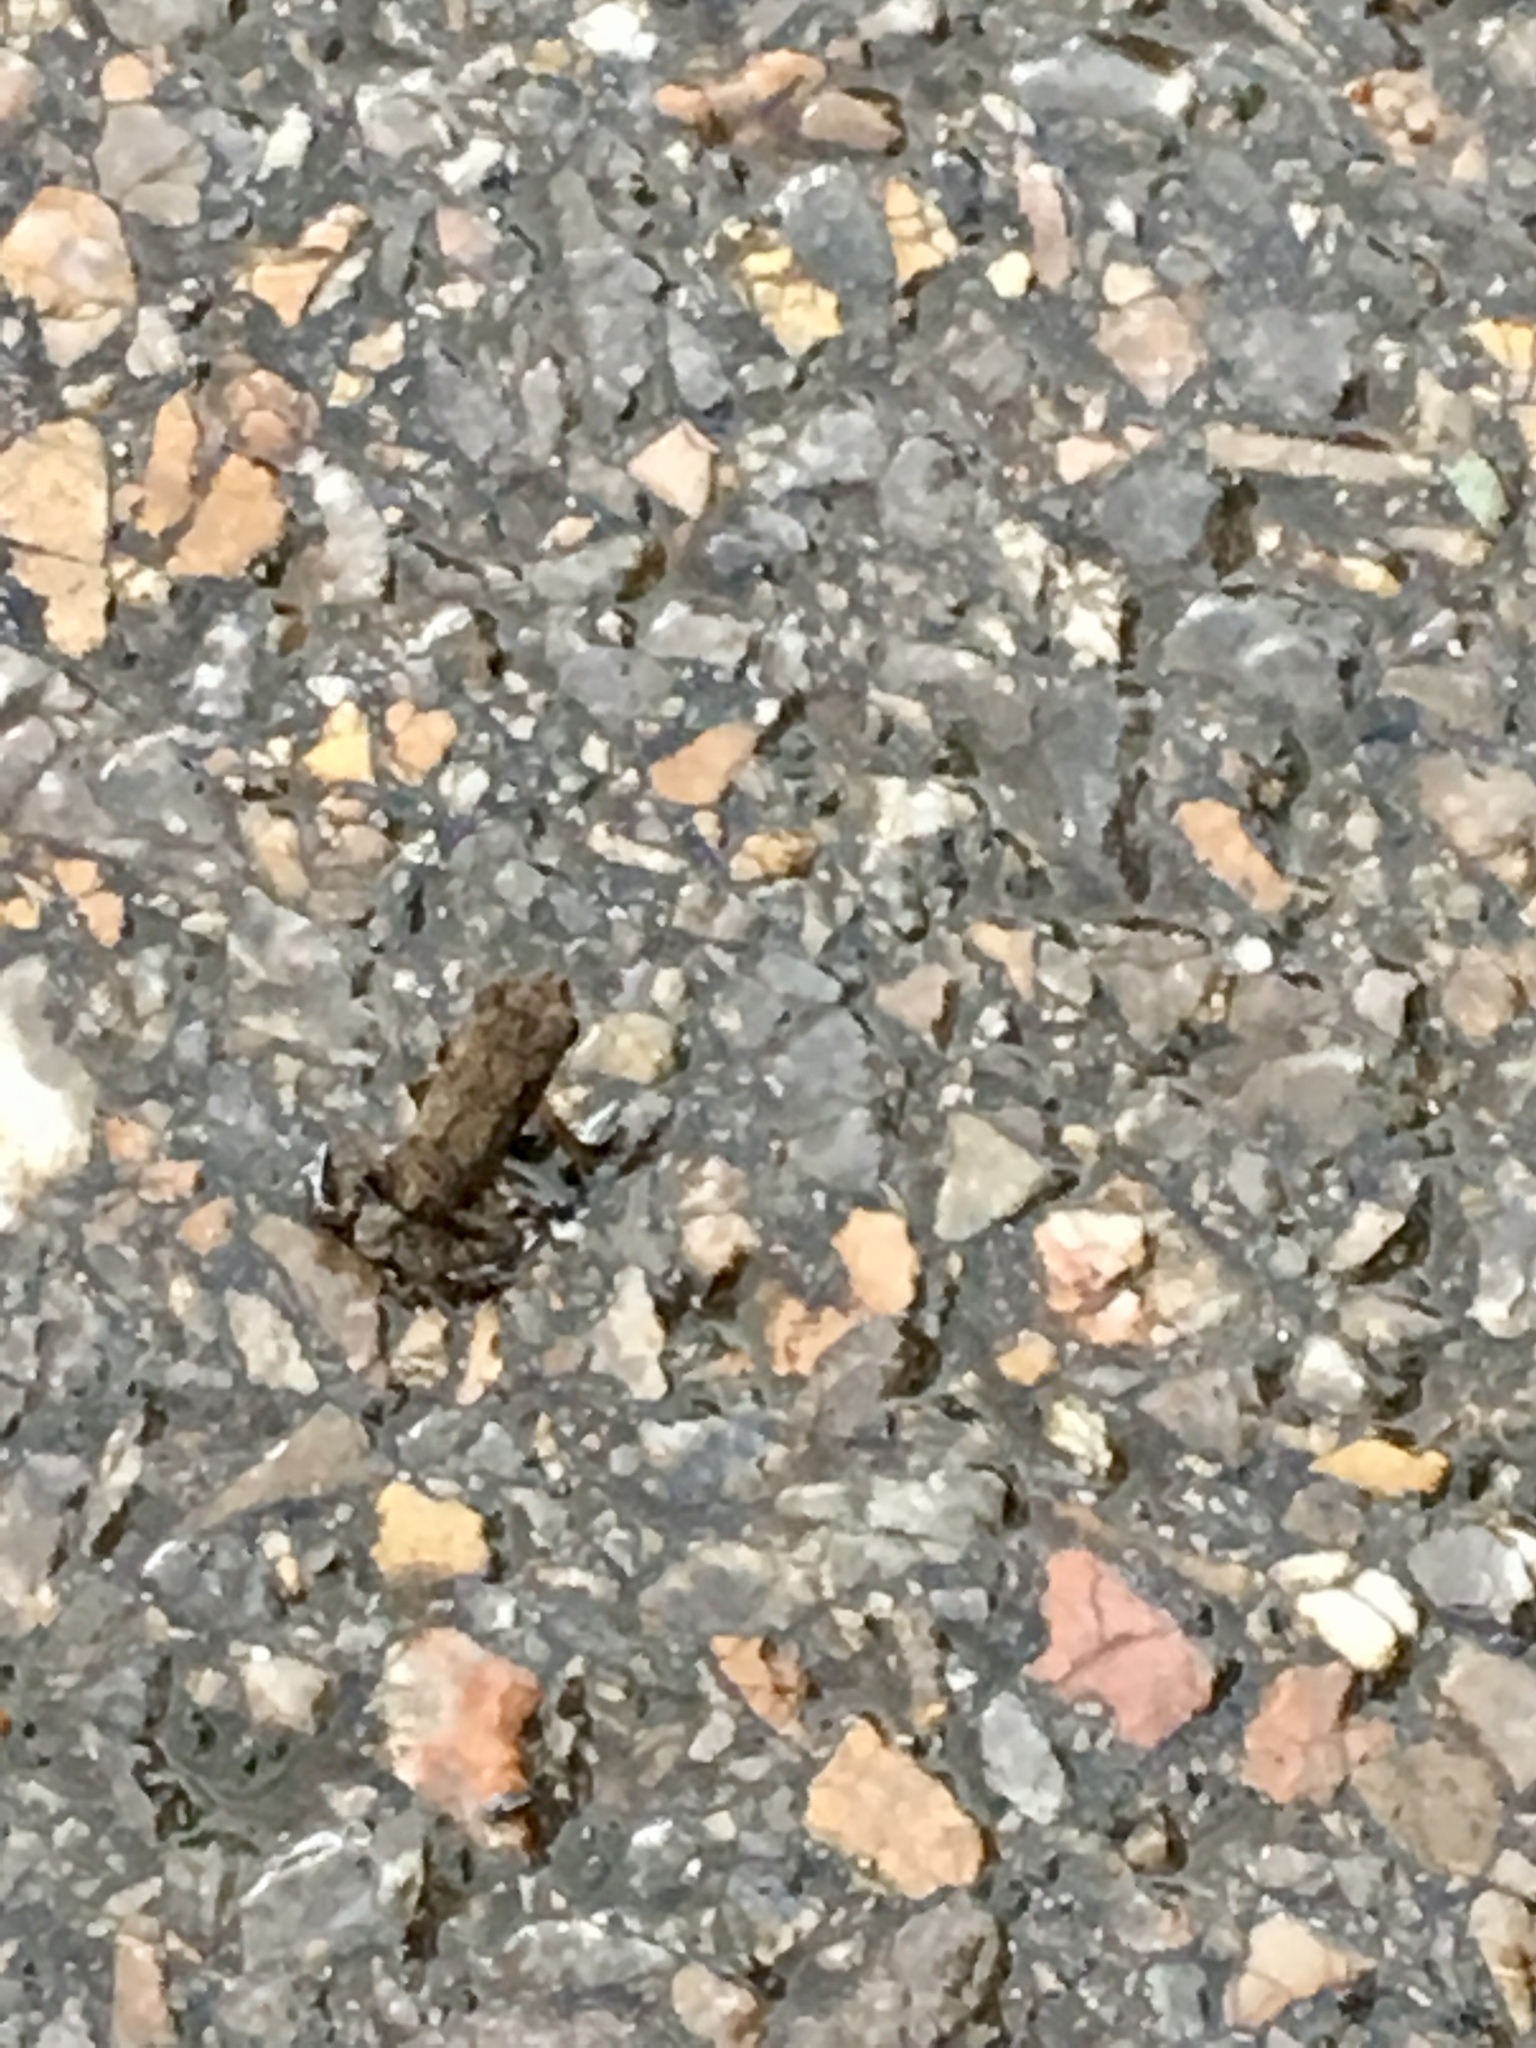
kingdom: Animalia
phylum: Chordata
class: Amphibia
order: Anura
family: Bufonidae
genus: Duttaphrynus
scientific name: Duttaphrynus melanostictus
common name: Common sunda toad
